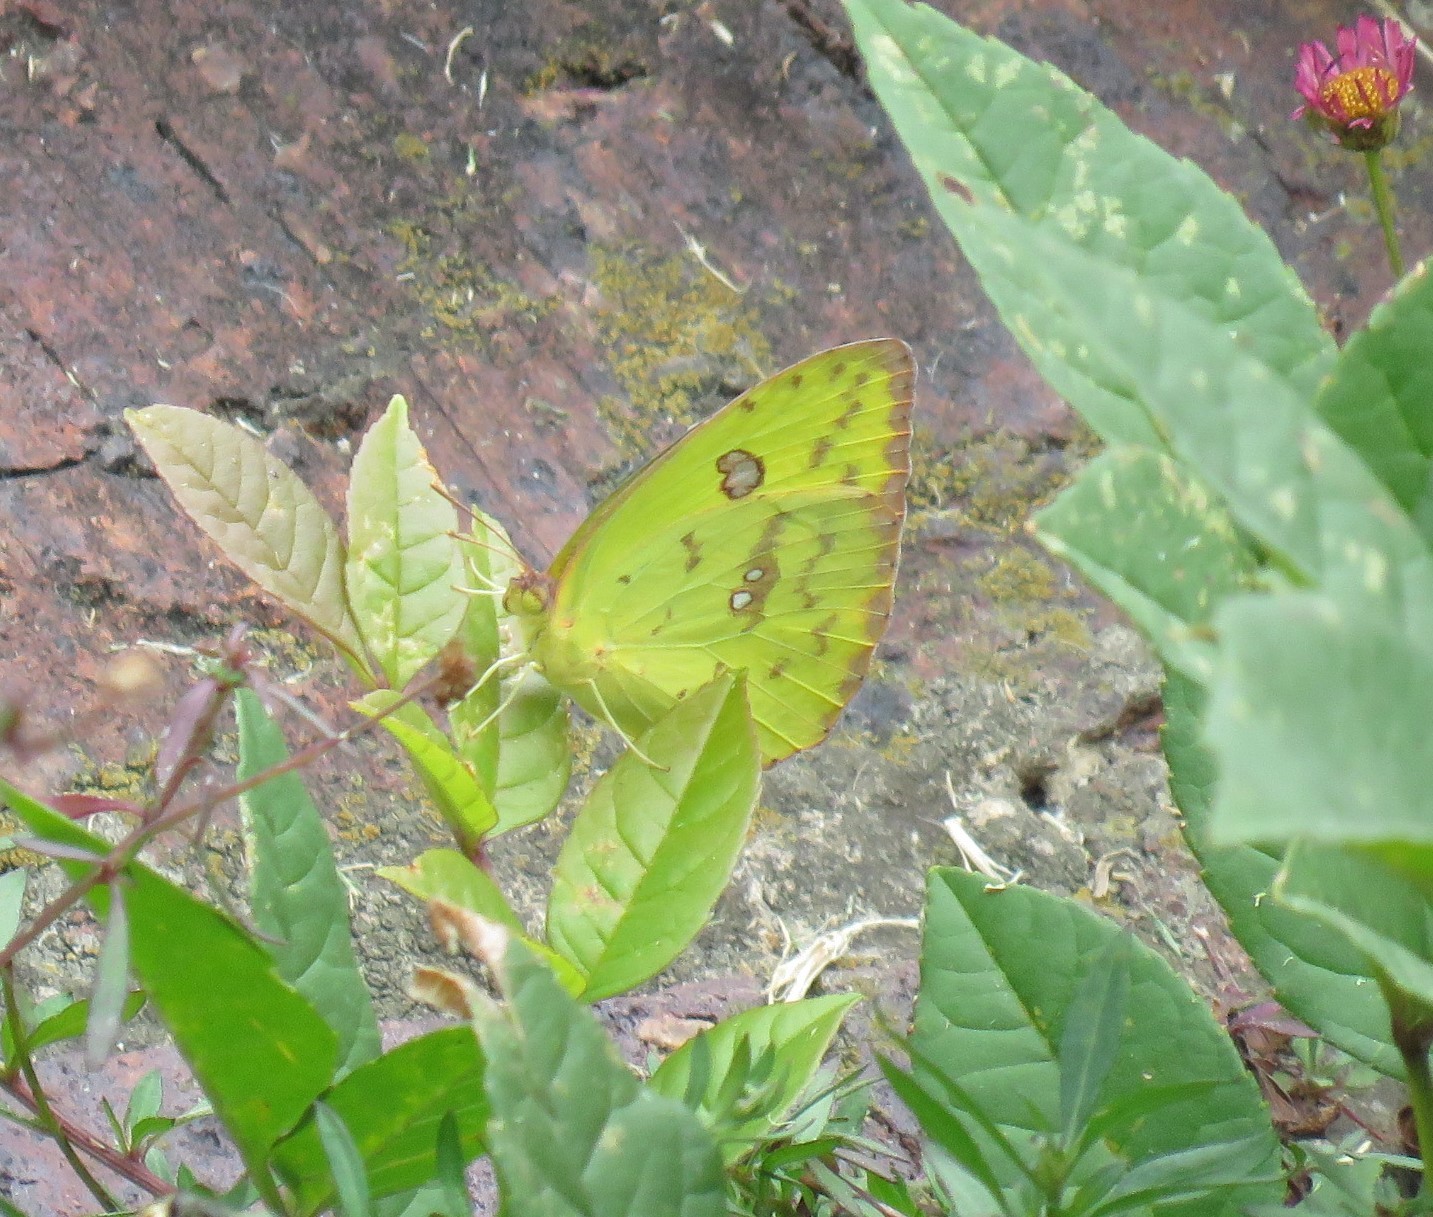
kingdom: Animalia
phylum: Arthropoda
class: Insecta
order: Lepidoptera
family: Pieridae
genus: Phoebis
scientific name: Phoebis marcellina
